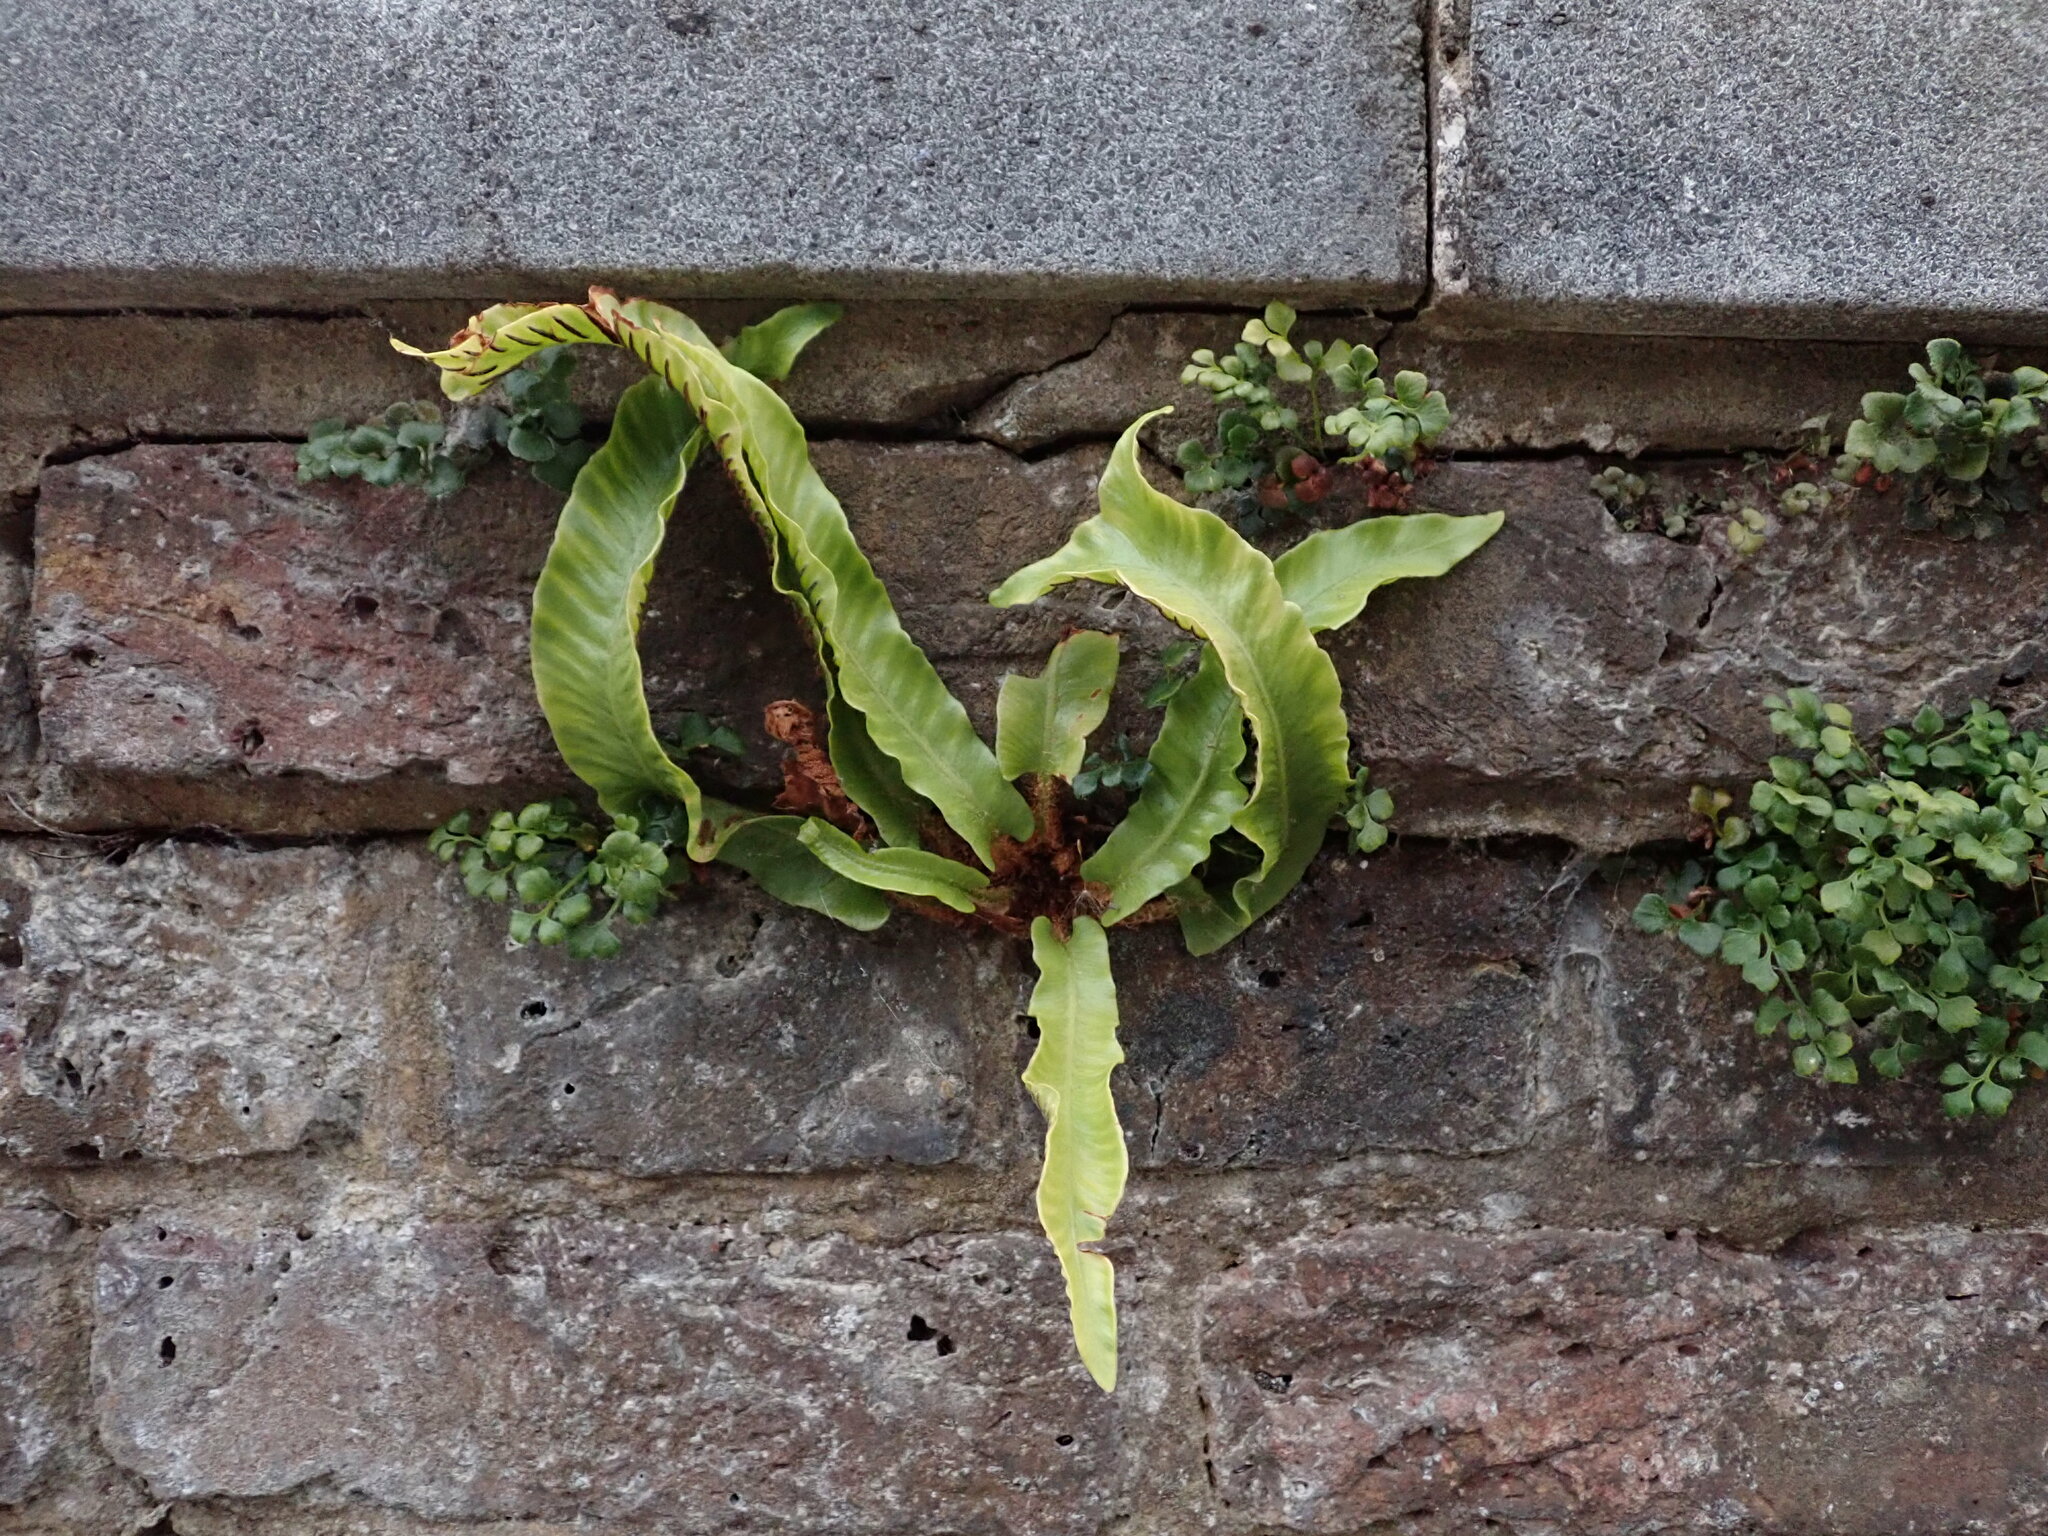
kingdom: Plantae
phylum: Tracheophyta
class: Polypodiopsida
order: Polypodiales
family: Aspleniaceae
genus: Asplenium
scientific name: Asplenium scolopendrium
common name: Hart's-tongue fern
